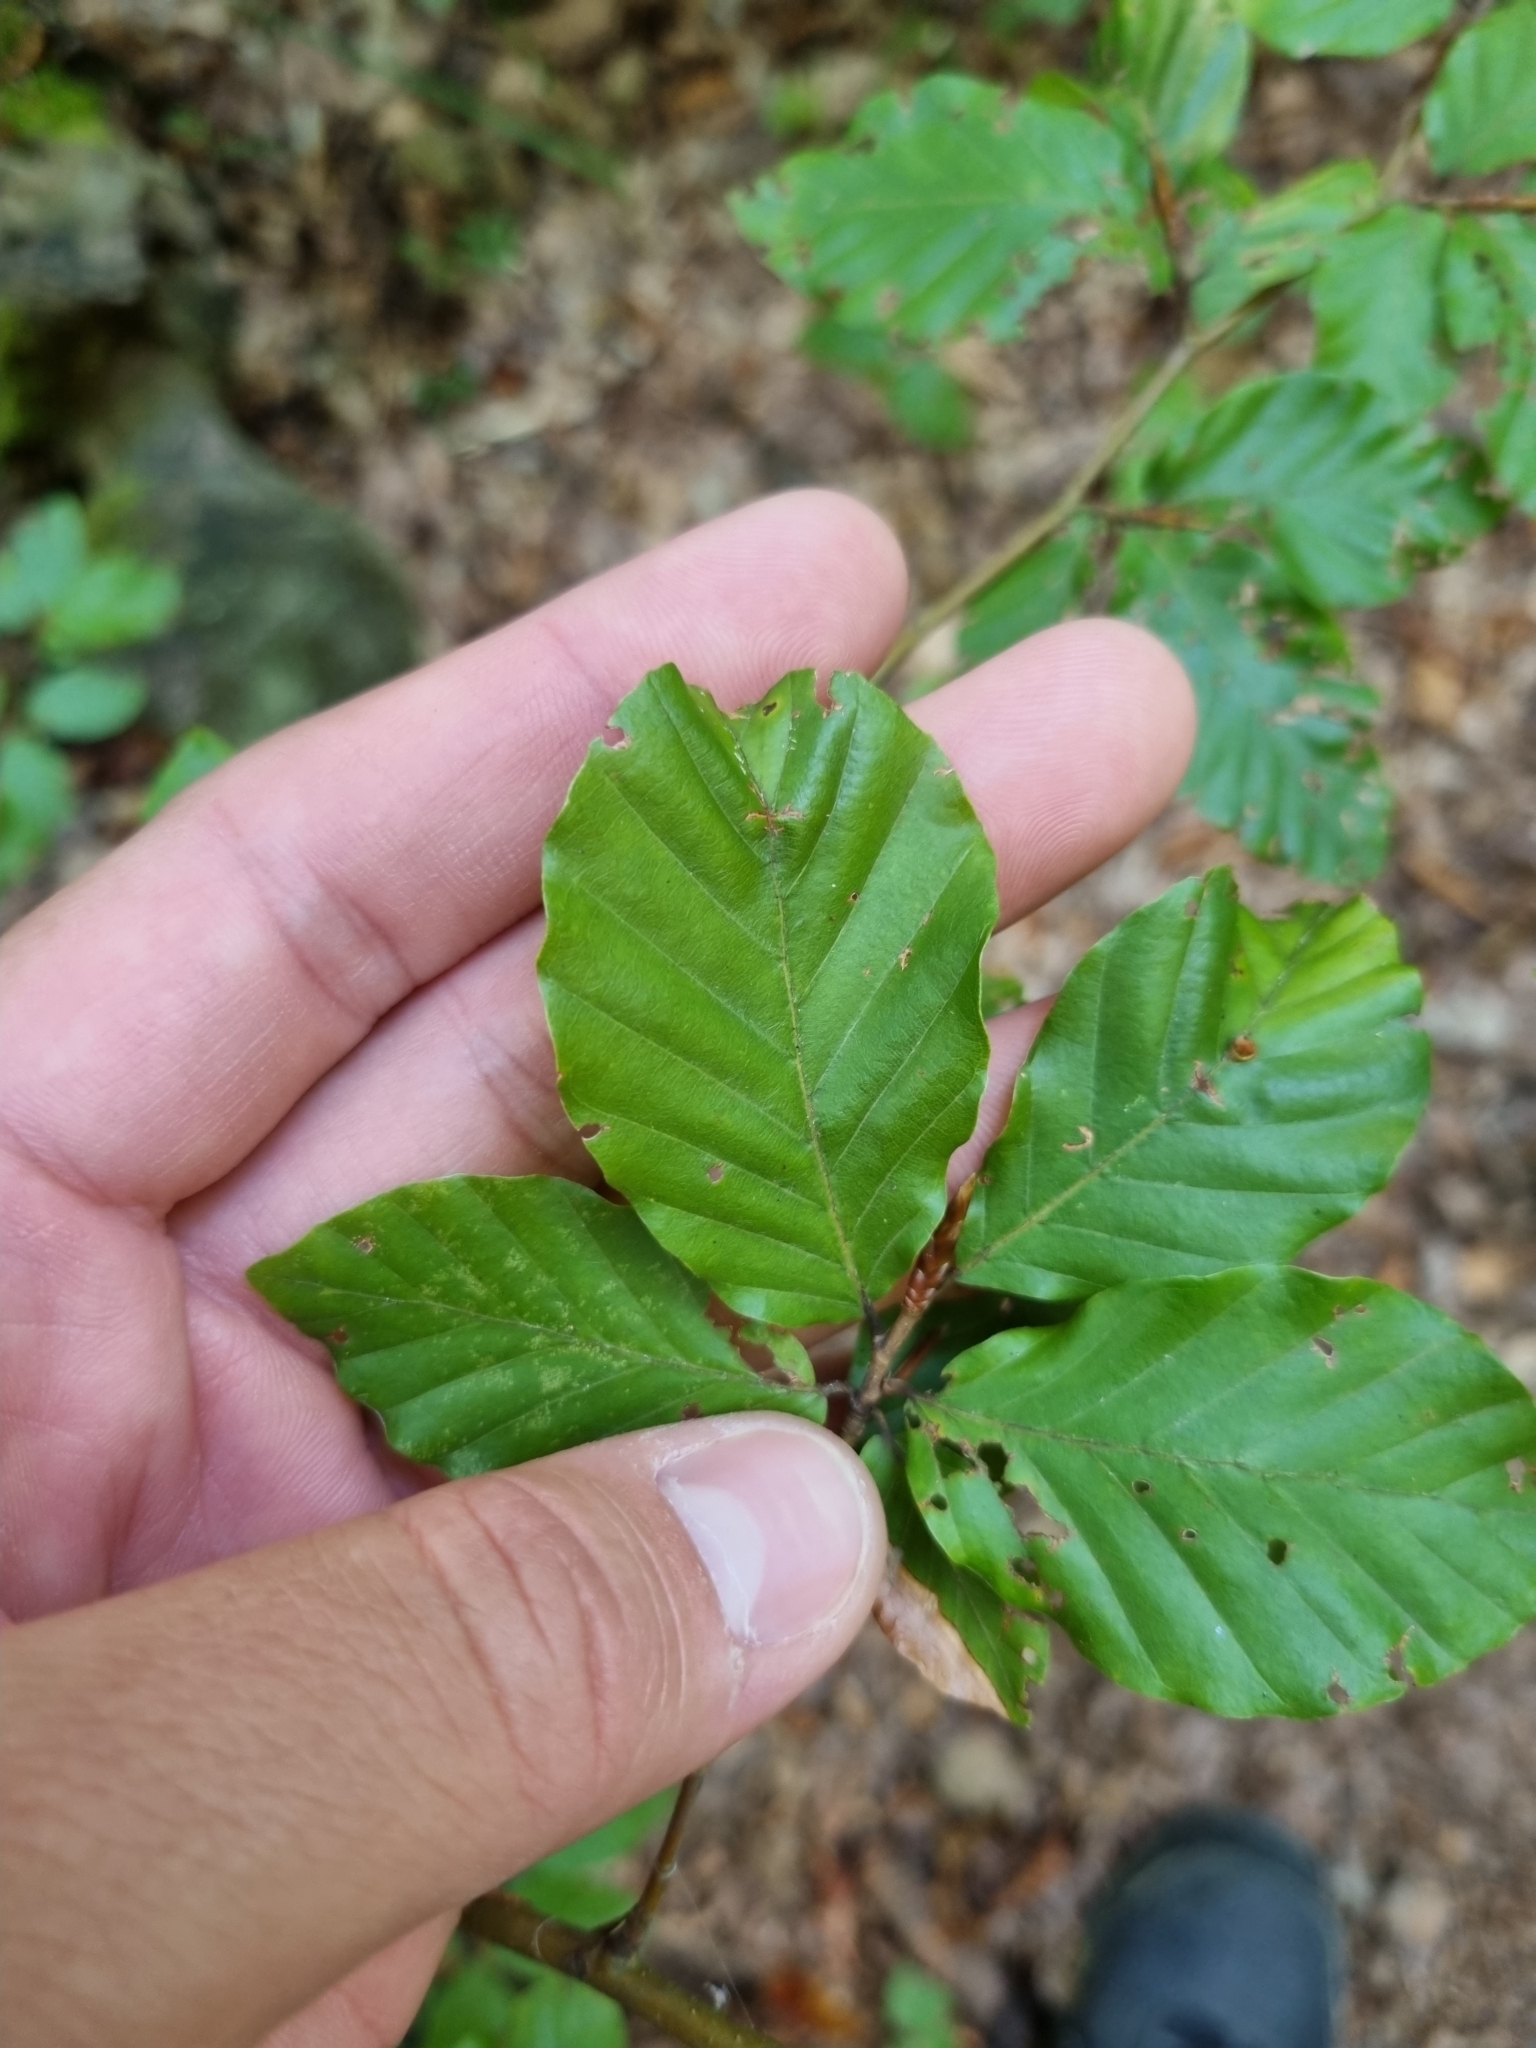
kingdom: Plantae
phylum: Tracheophyta
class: Magnoliopsida
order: Fagales
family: Fagaceae
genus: Fagus
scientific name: Fagus sylvatica
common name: Beech
